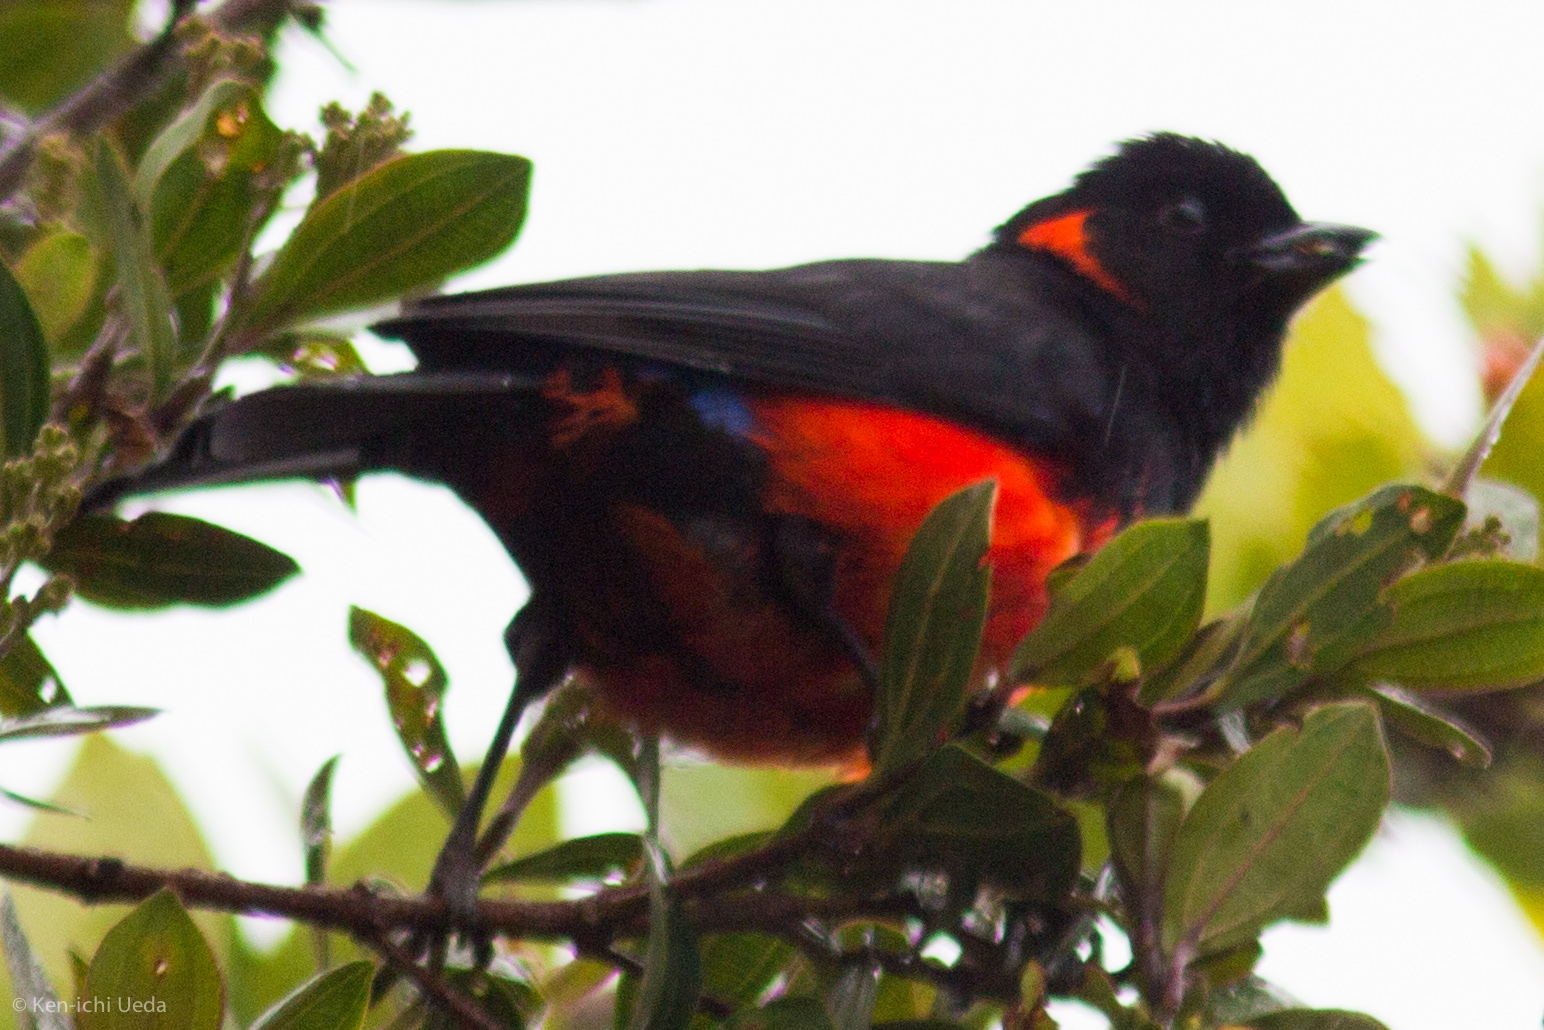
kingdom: Animalia
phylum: Chordata
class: Aves
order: Passeriformes
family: Thraupidae
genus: Anisognathus
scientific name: Anisognathus igniventris
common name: Scarlet-bellied mountain tanager
